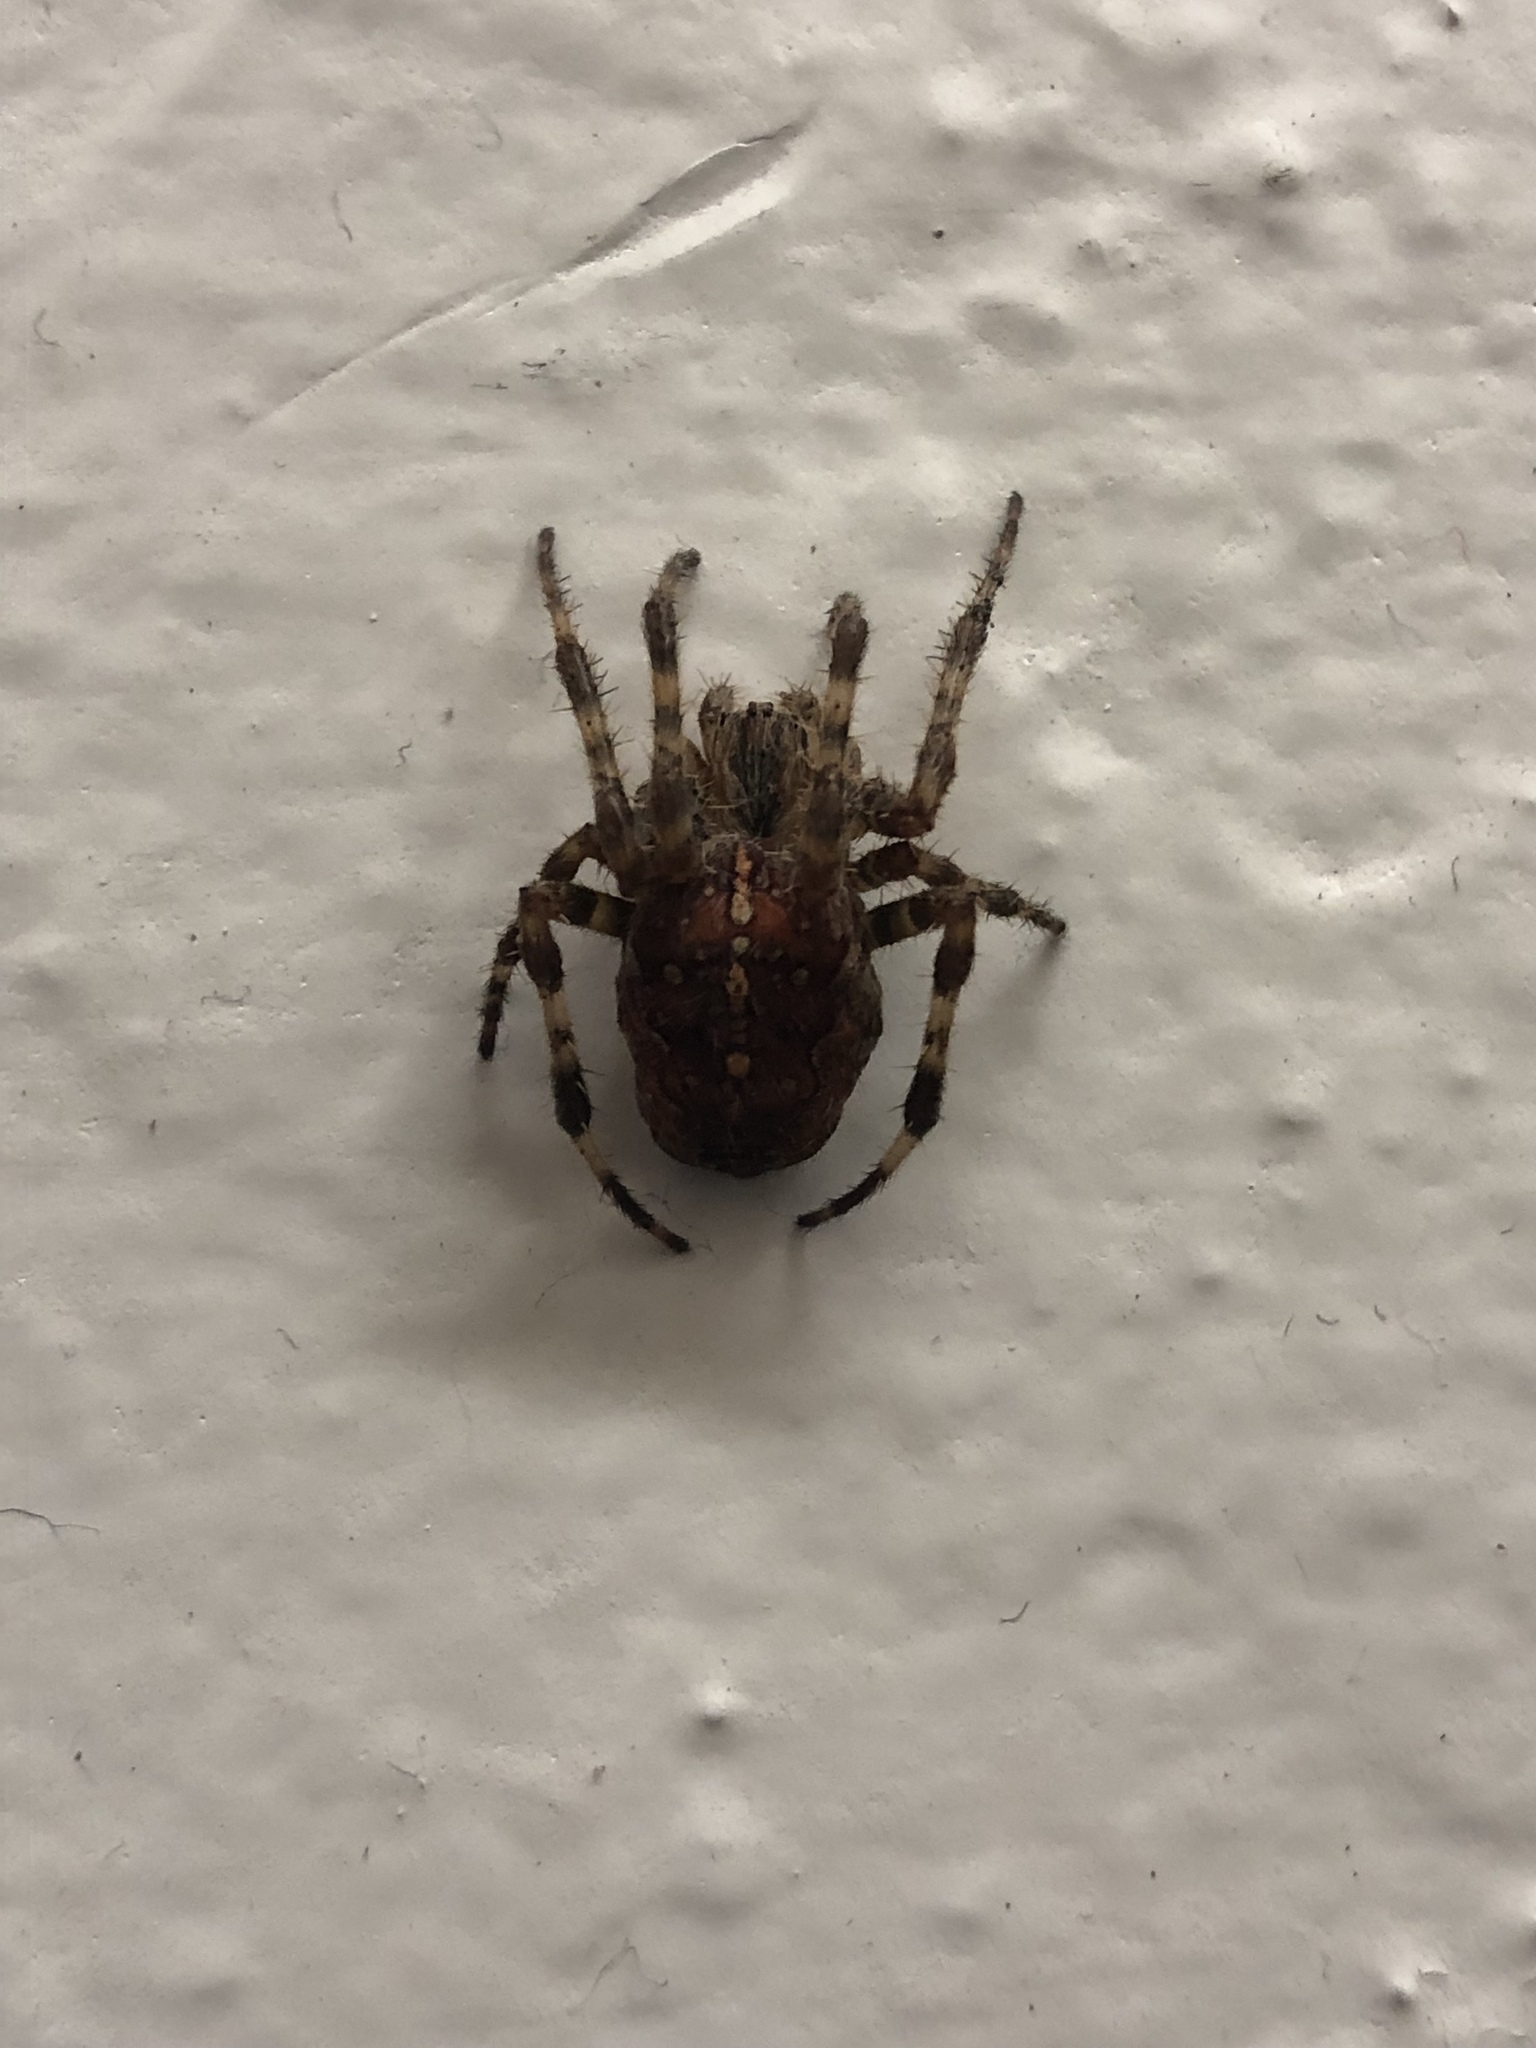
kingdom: Animalia
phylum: Arthropoda
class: Arachnida
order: Araneae
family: Araneidae
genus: Araneus
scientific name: Araneus diadematus
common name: Cross orbweaver
